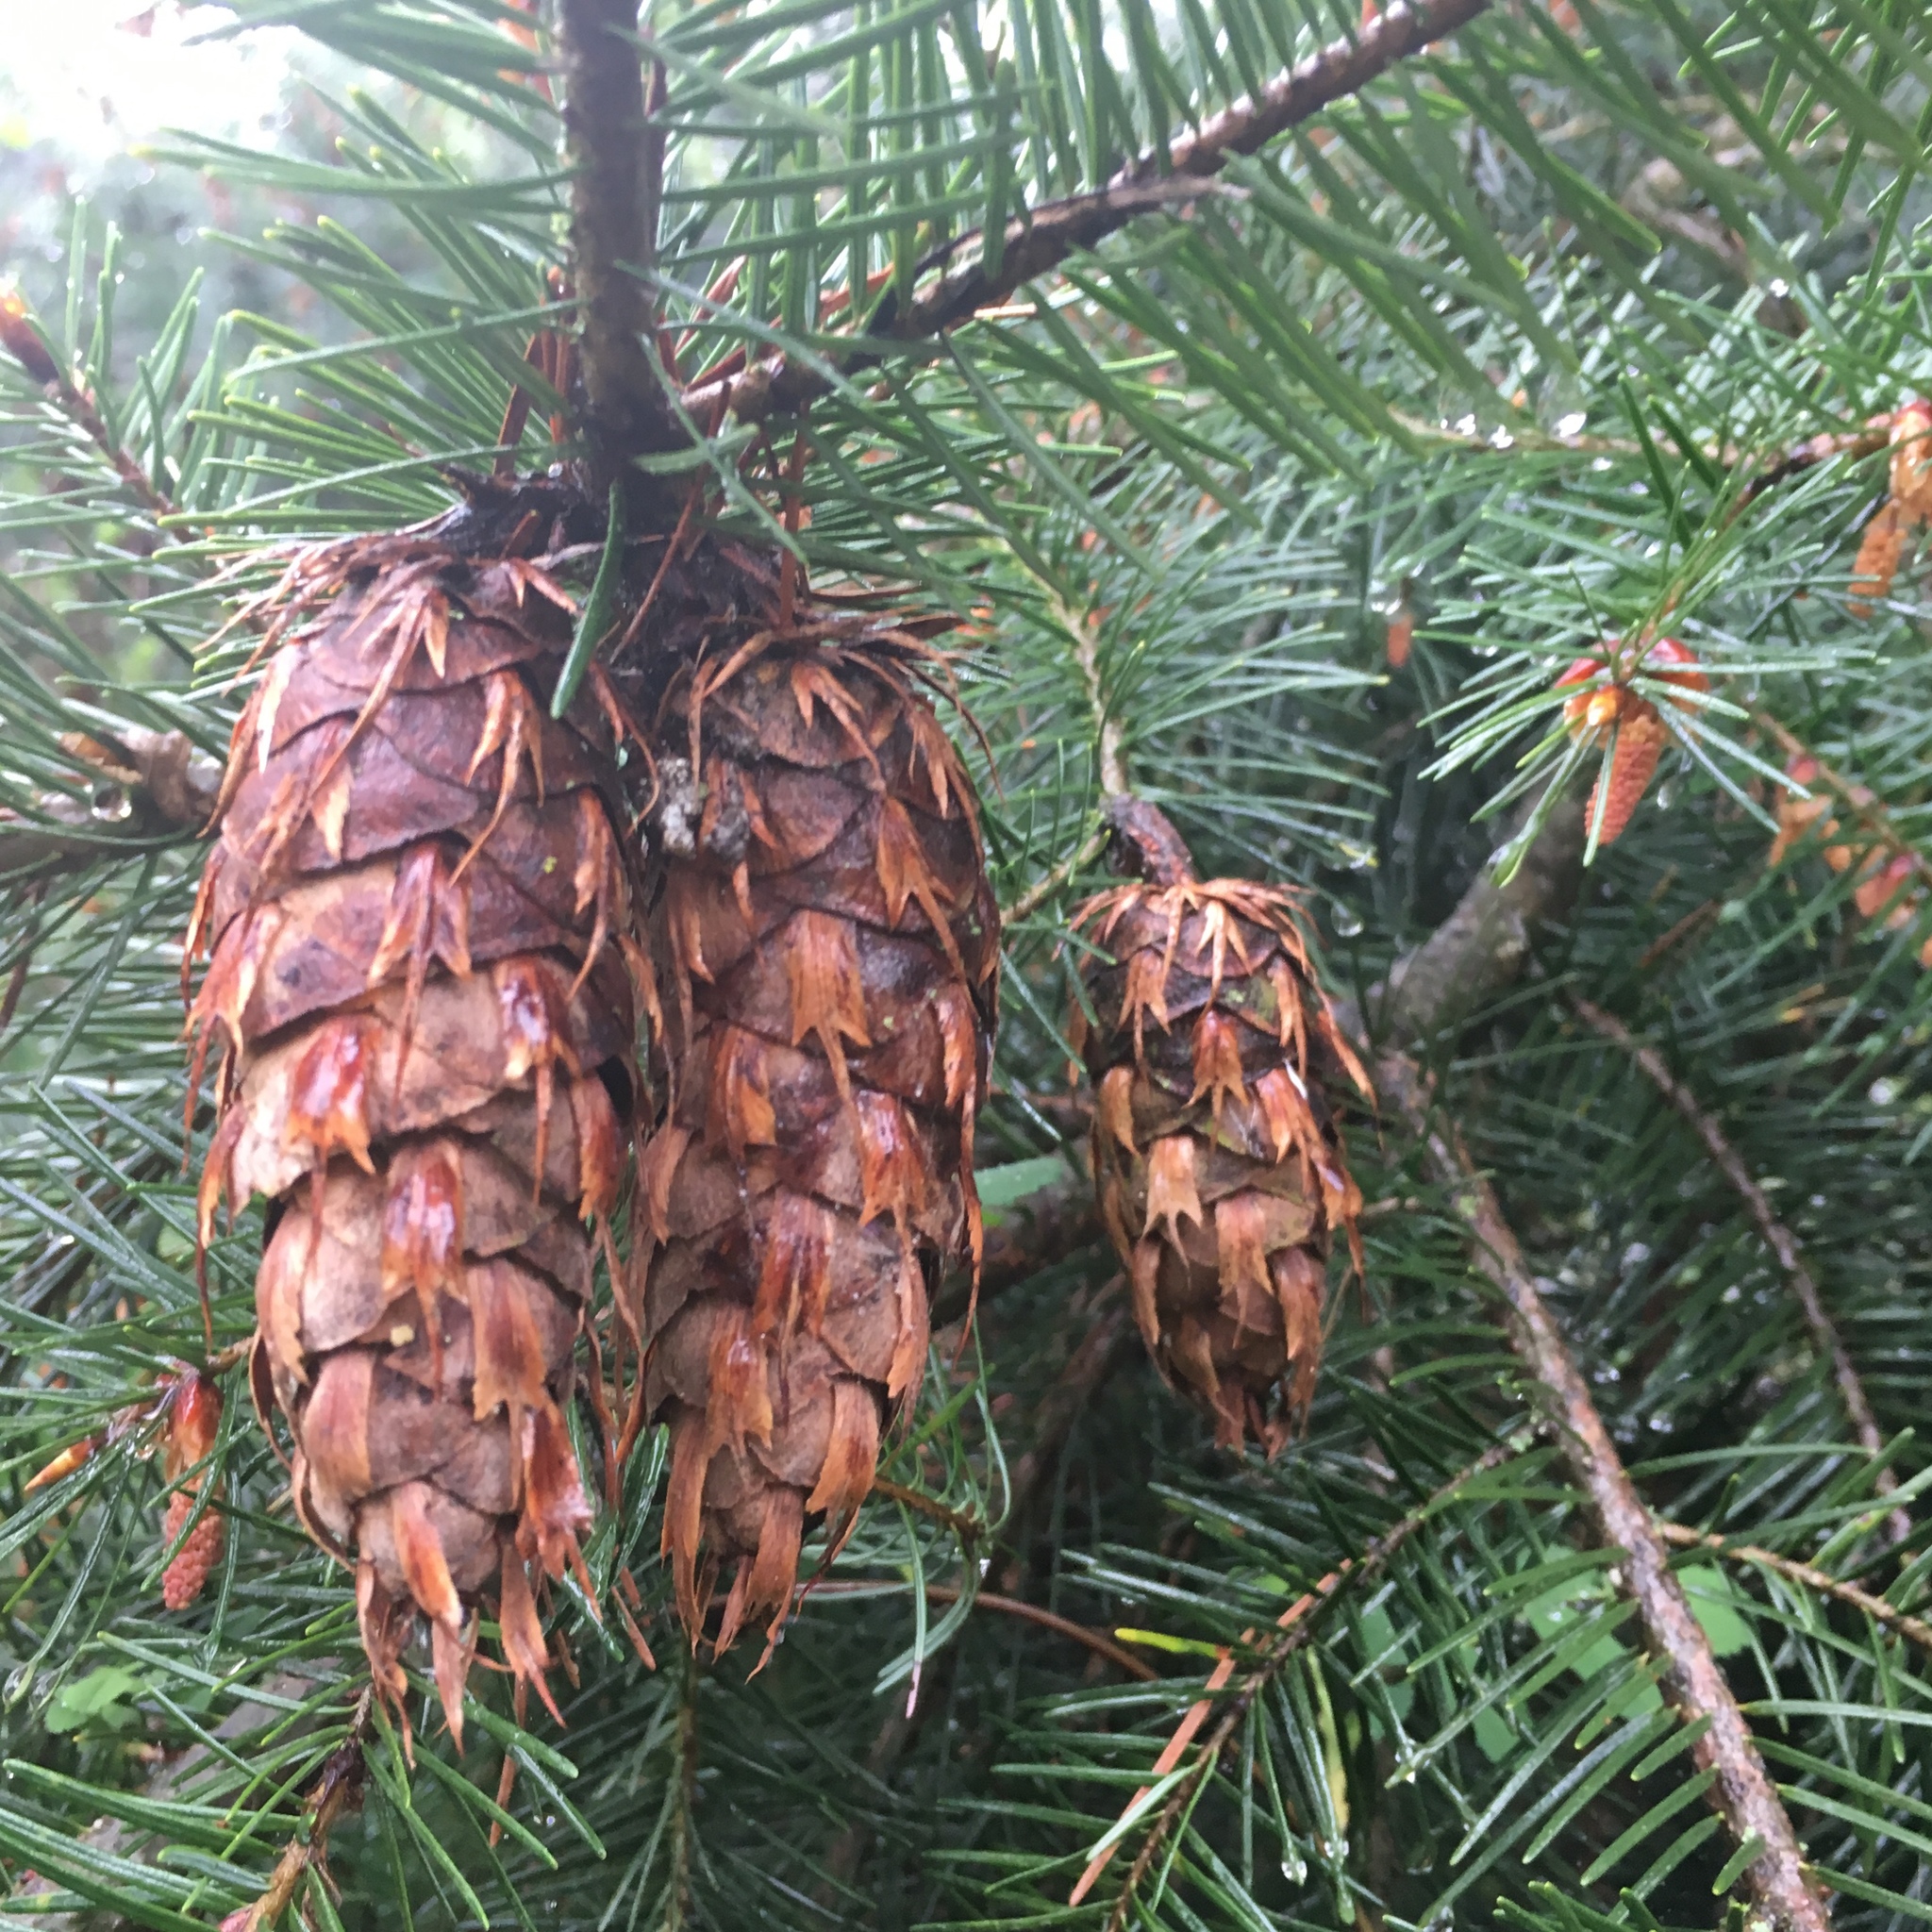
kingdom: Plantae
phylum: Tracheophyta
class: Pinopsida
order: Pinales
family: Pinaceae
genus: Pseudotsuga
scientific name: Pseudotsuga menziesii
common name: Douglas fir
